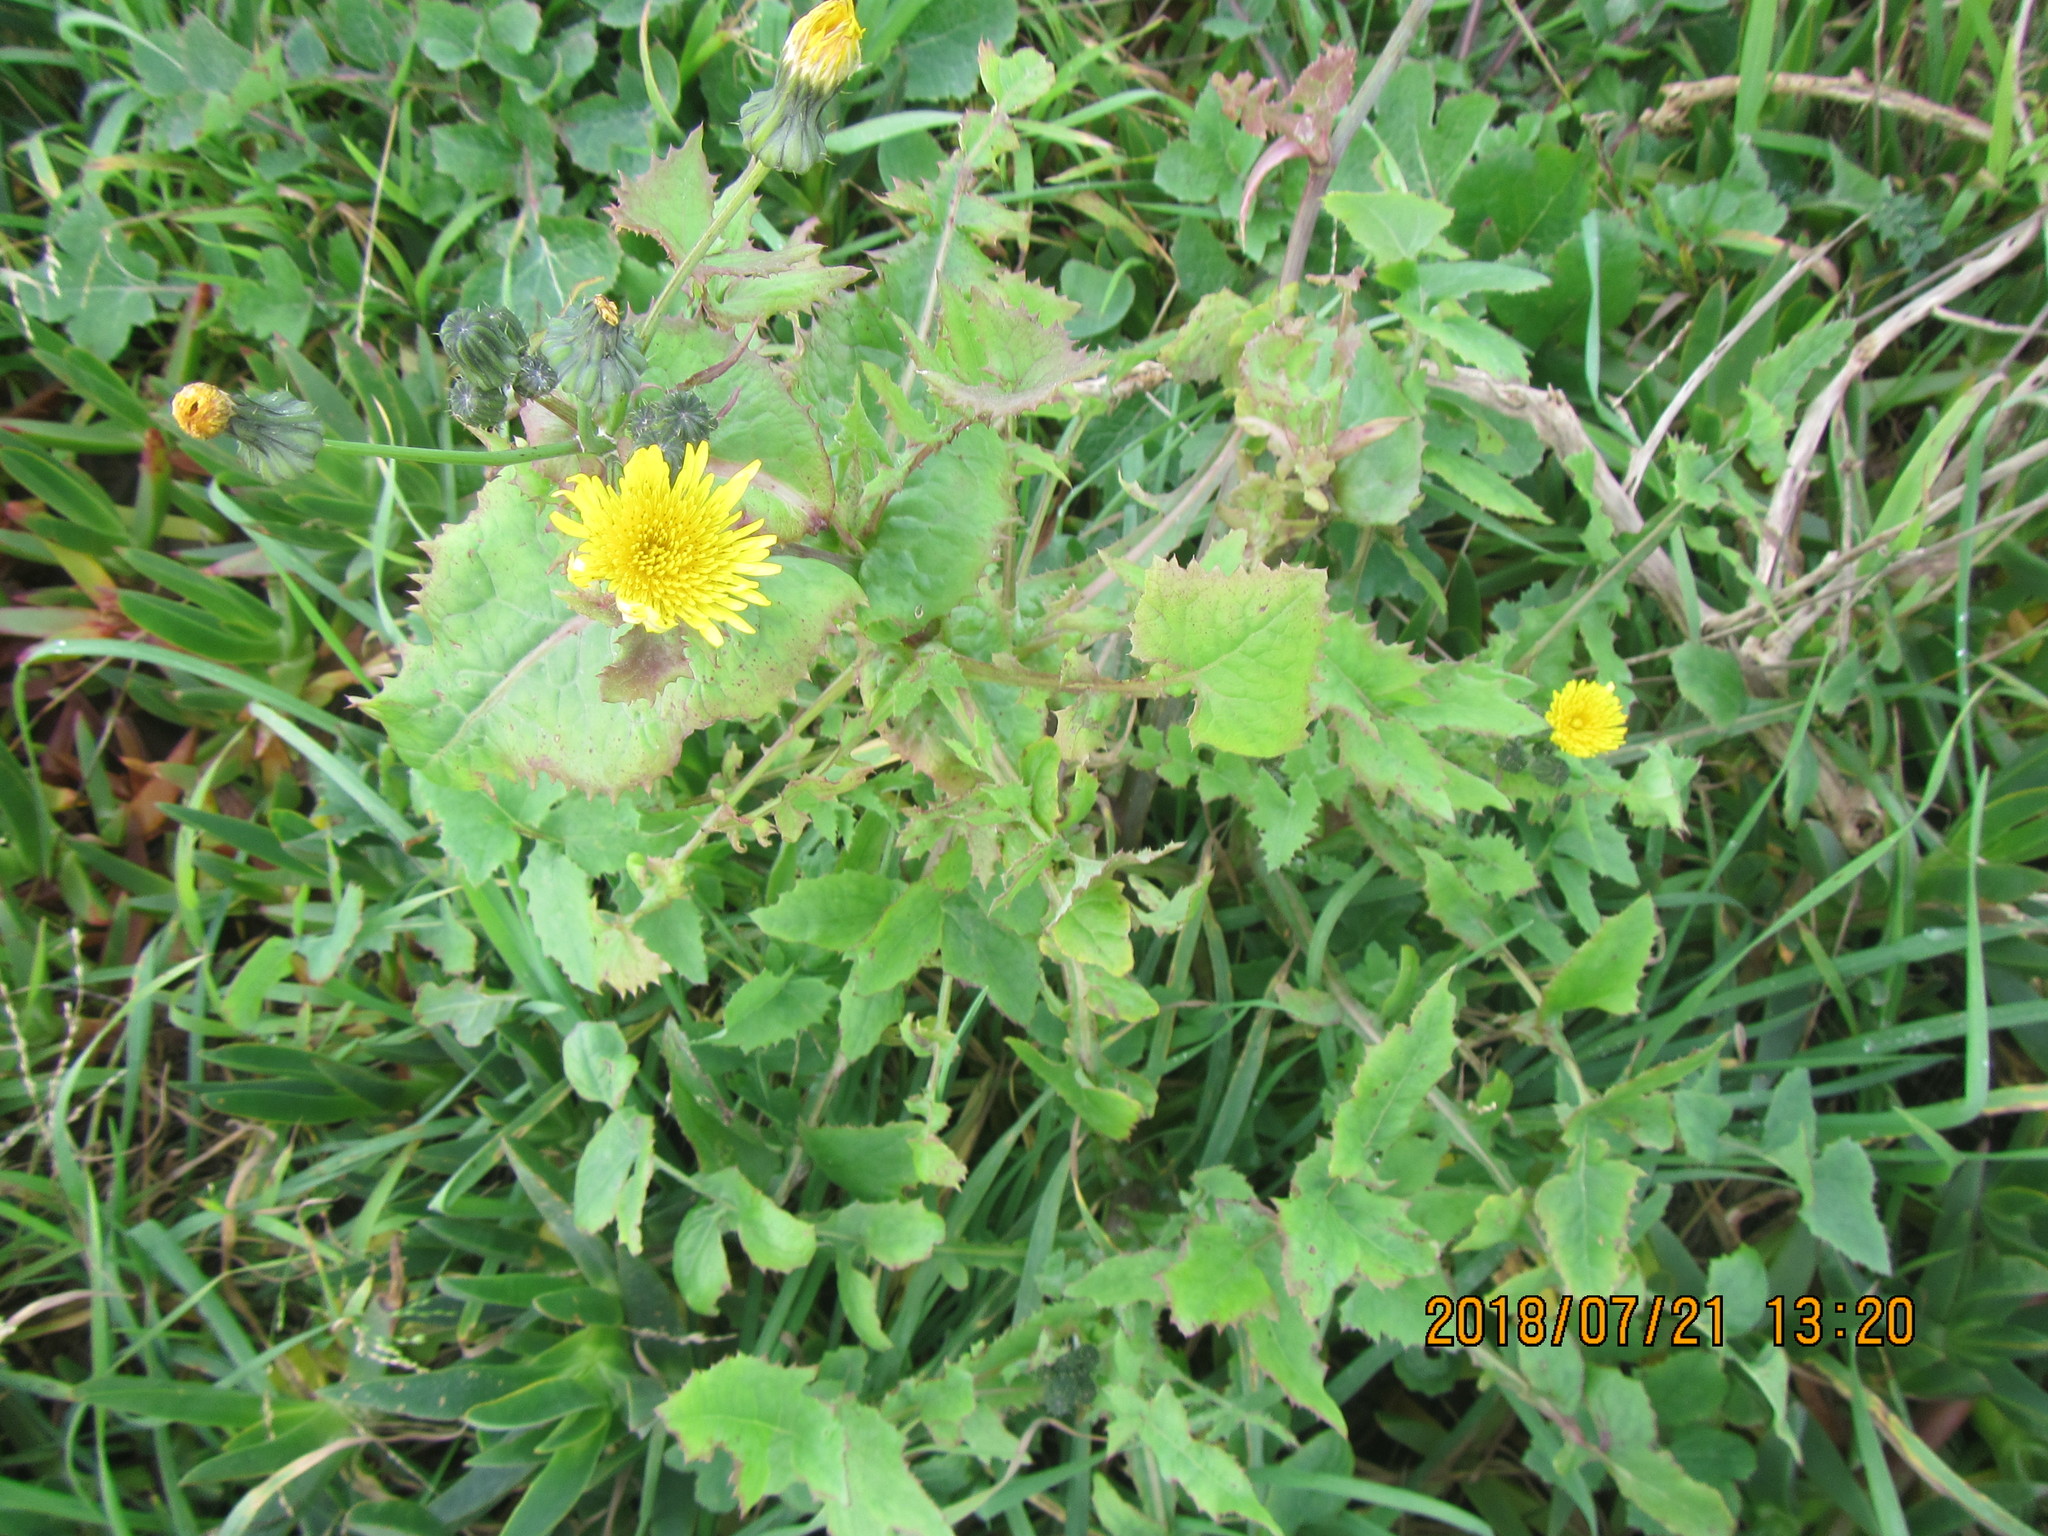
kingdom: Plantae
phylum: Tracheophyta
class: Magnoliopsida
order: Asterales
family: Asteraceae
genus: Sonchus
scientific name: Sonchus oleraceus
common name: Common sowthistle
